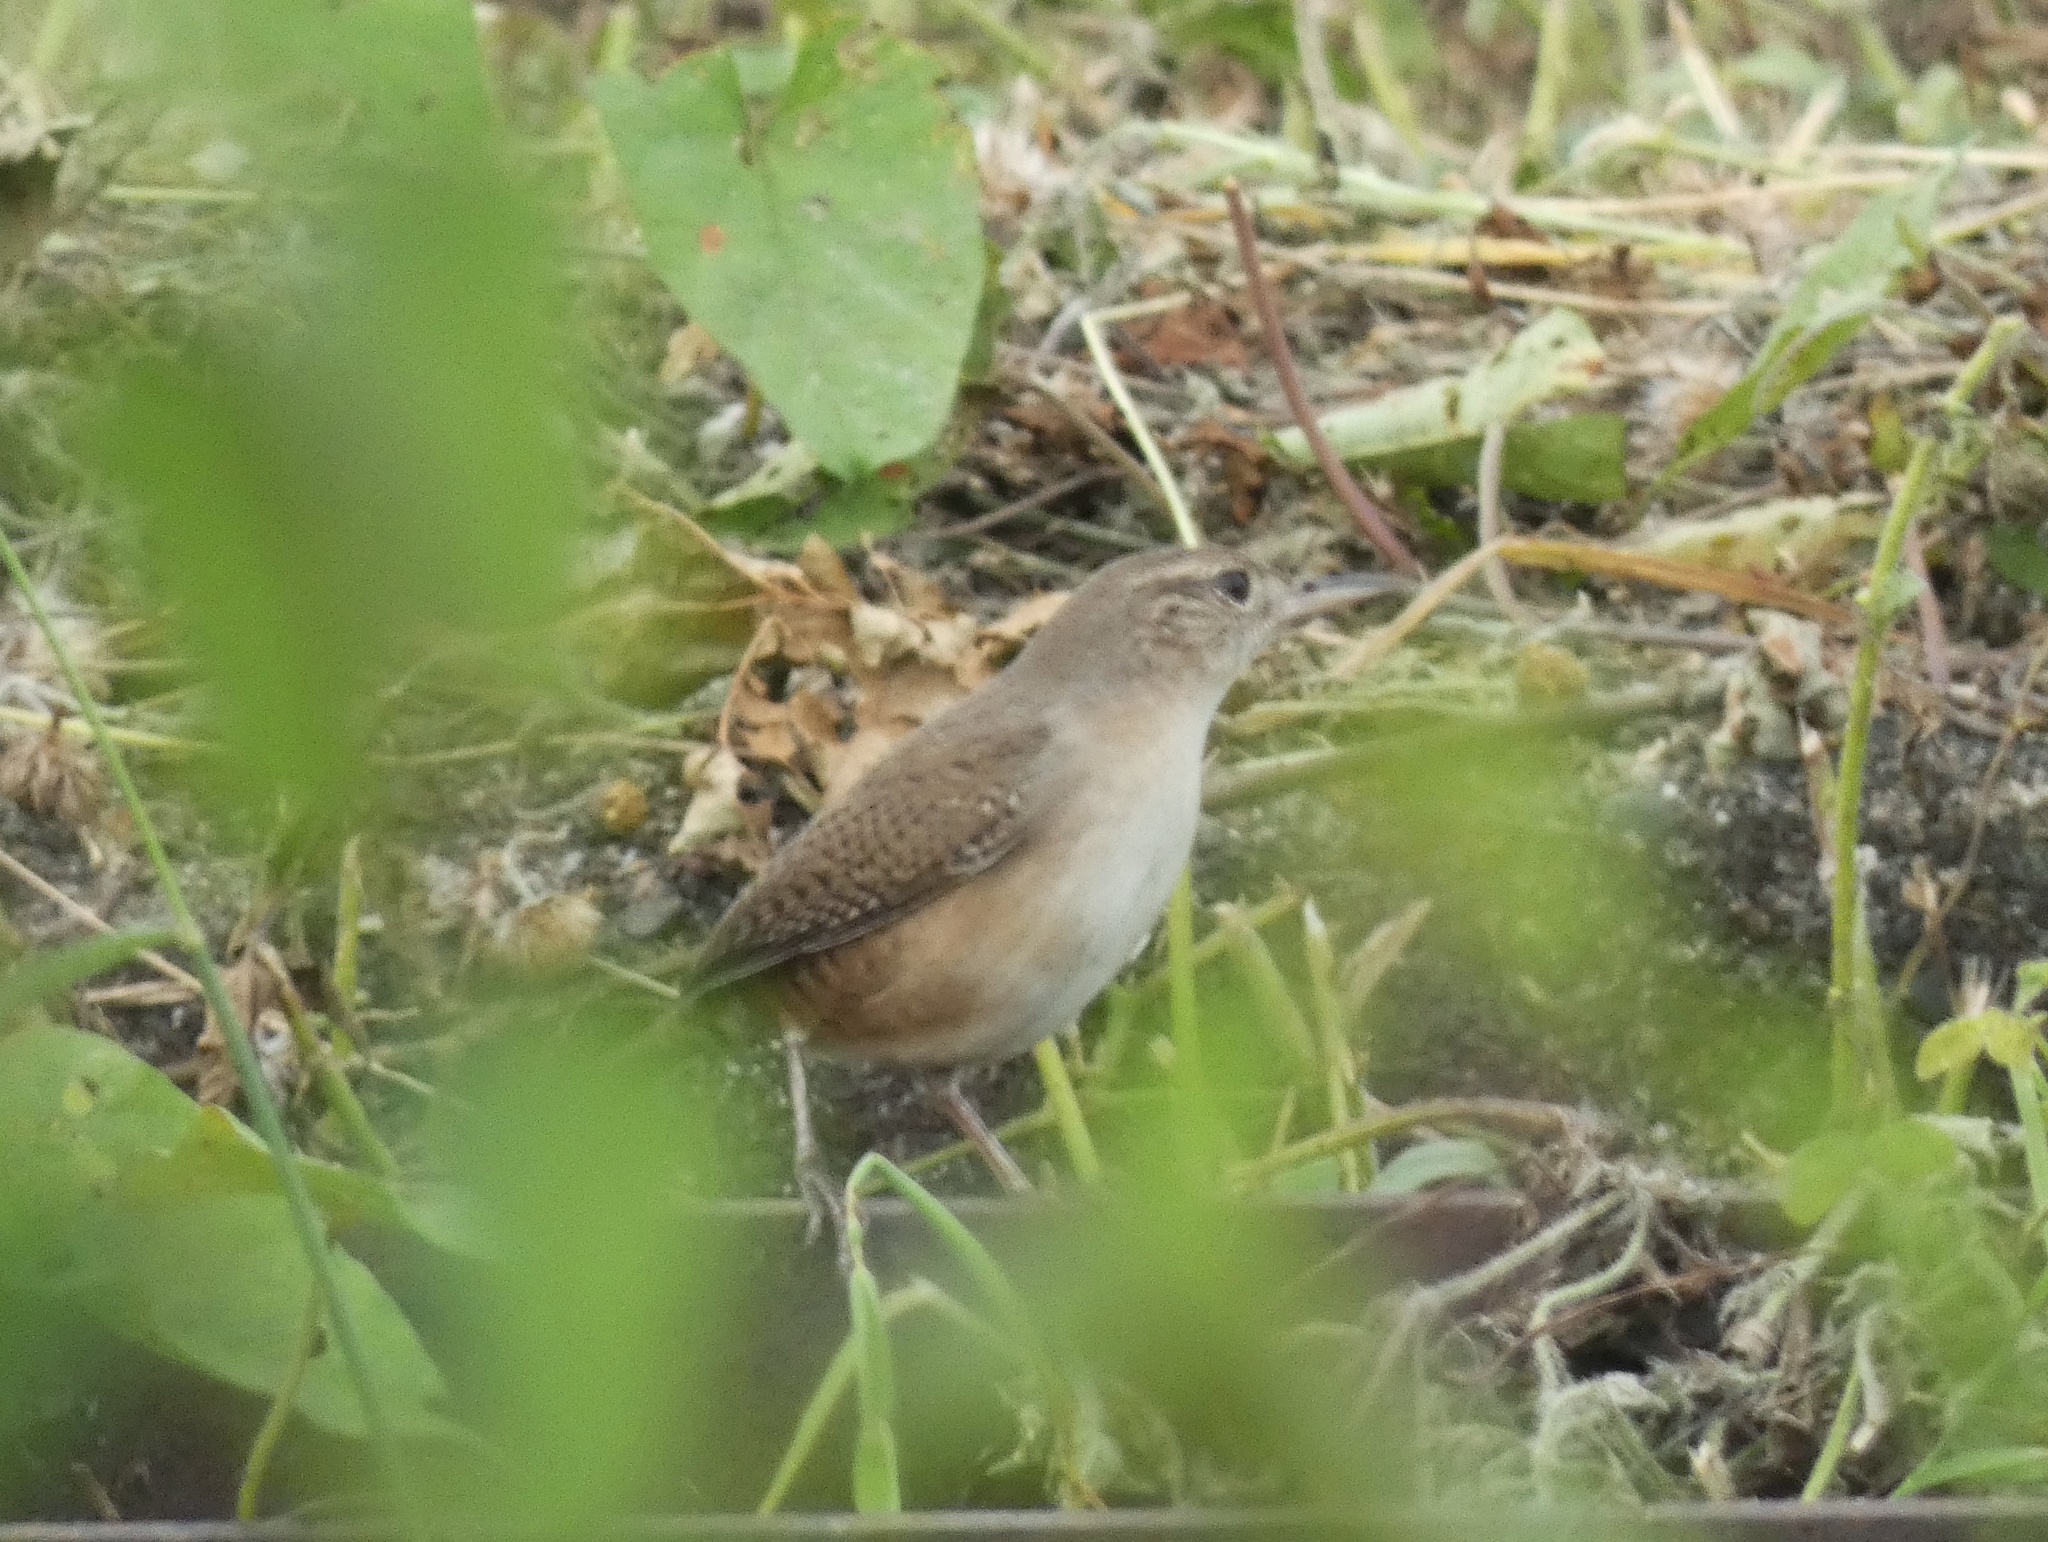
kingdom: Animalia
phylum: Chordata
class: Aves
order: Passeriformes
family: Troglodytidae
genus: Troglodytes
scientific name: Troglodytes aedon
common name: House wren
